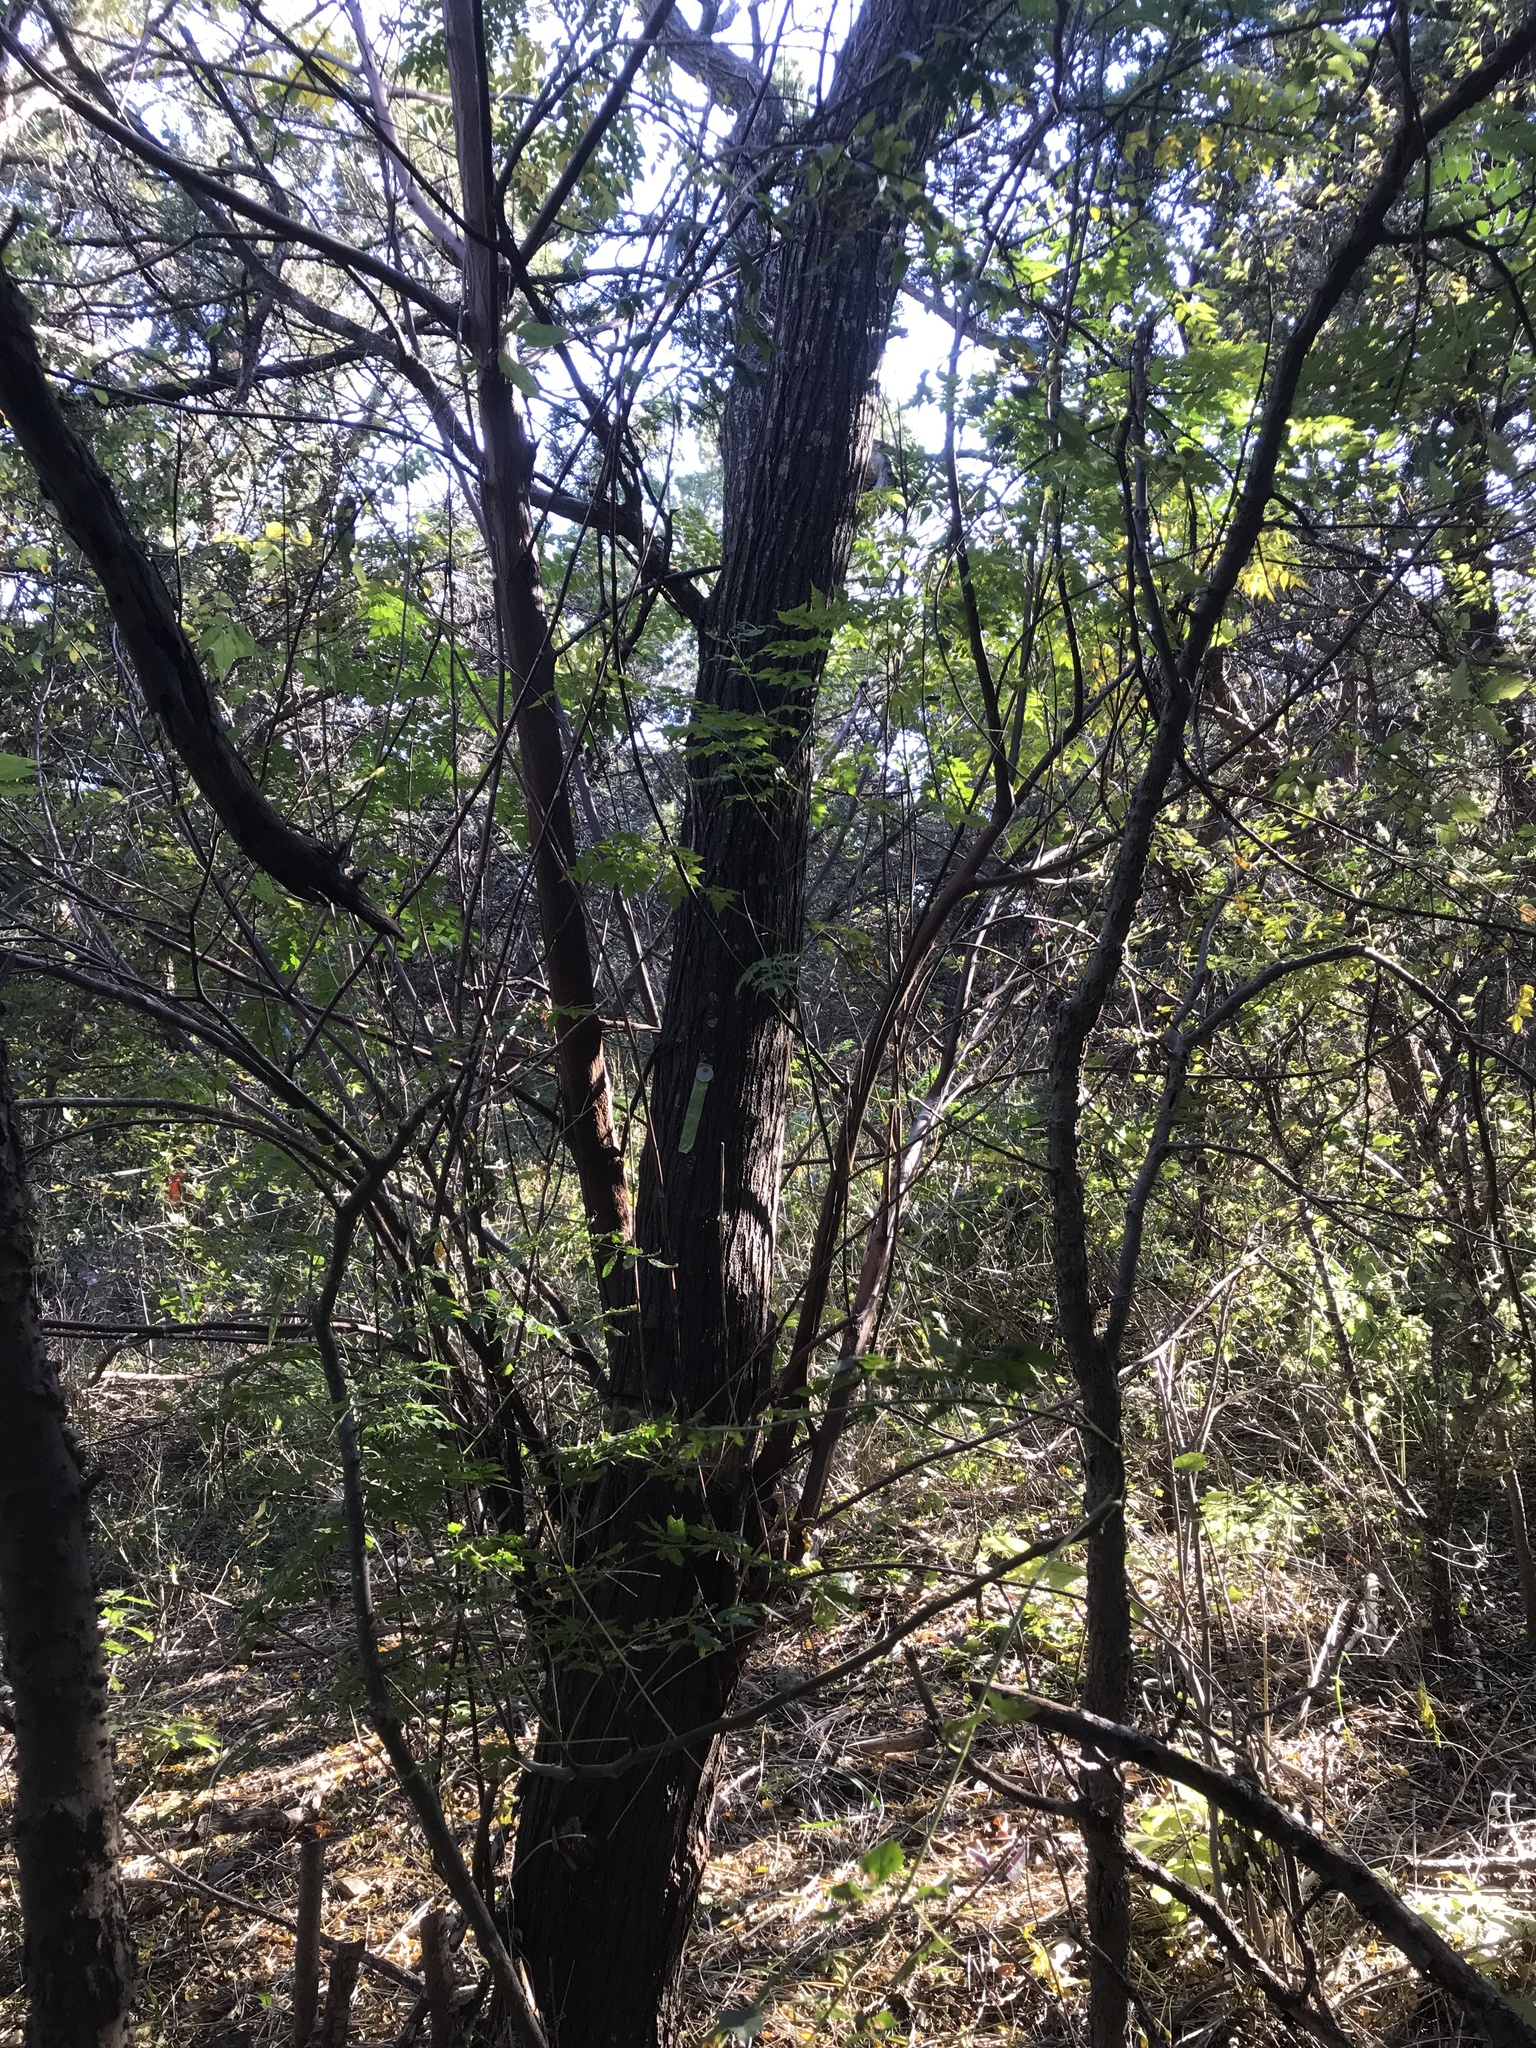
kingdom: Plantae
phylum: Tracheophyta
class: Magnoliopsida
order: Sapindales
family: Meliaceae
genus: Melia
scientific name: Melia azedarach
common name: Chinaberrytree
